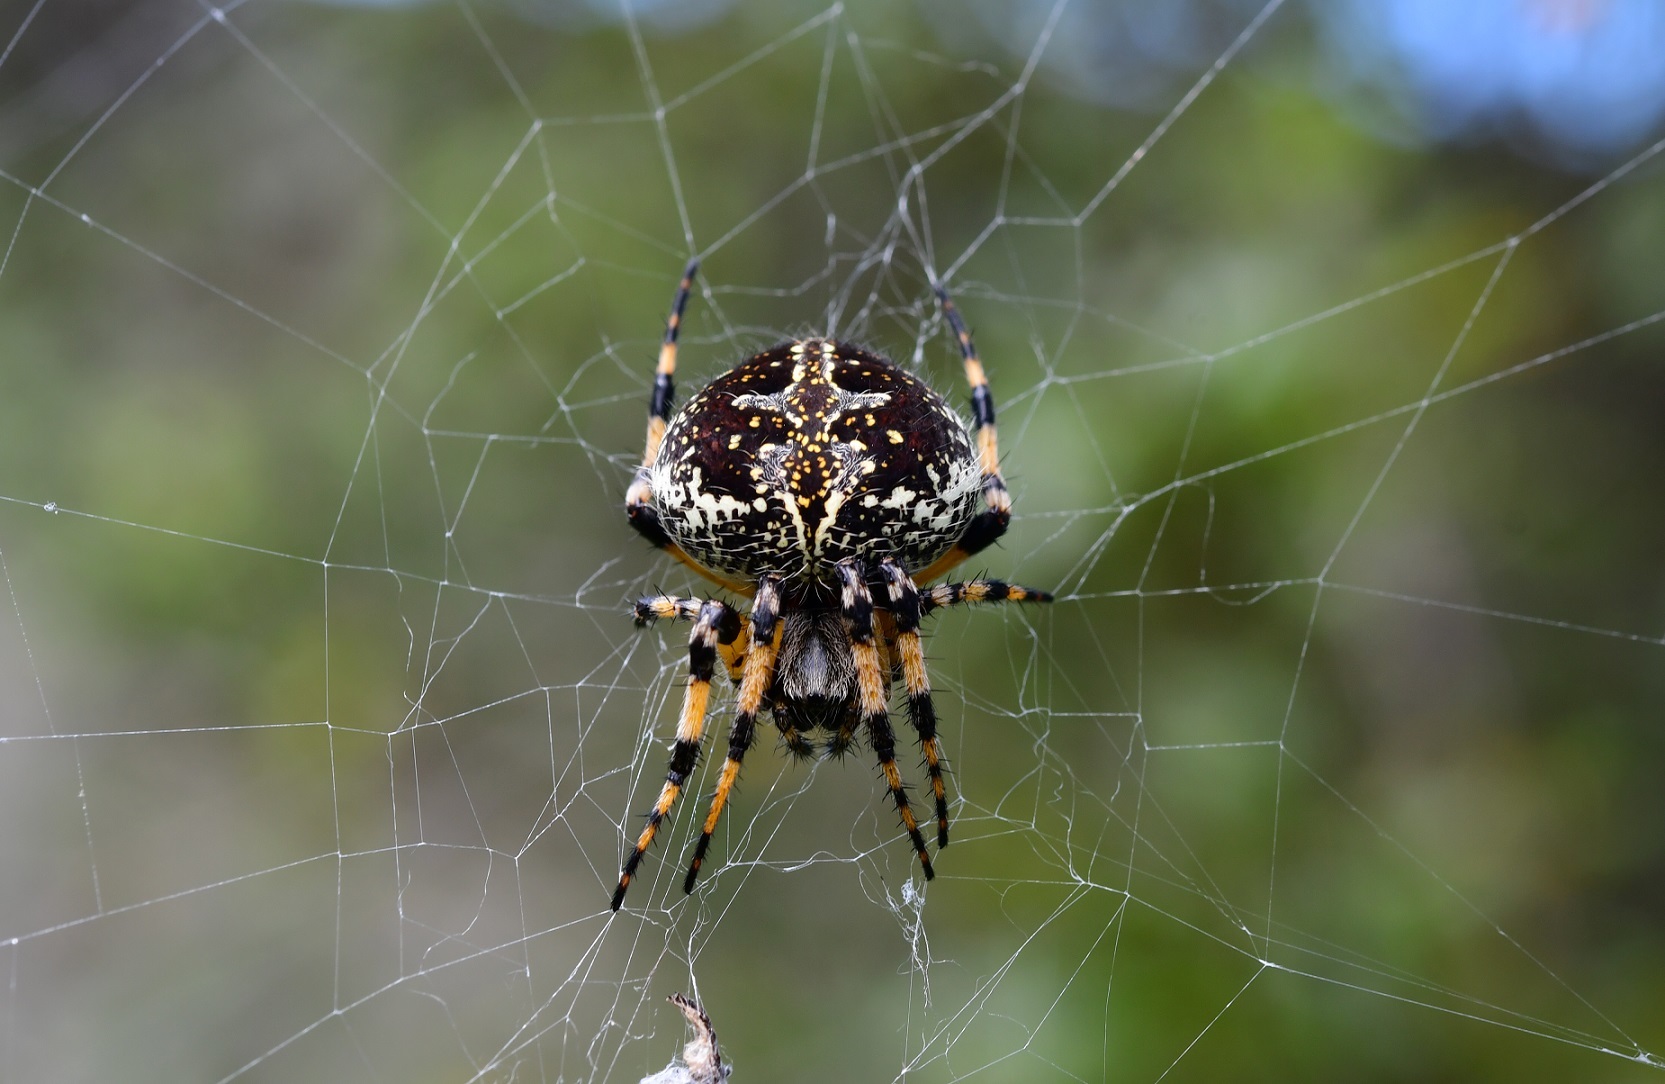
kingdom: Animalia
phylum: Arthropoda
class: Arachnida
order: Araneae
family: Araneidae
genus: Neoscona
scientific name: Neoscona orizabensis
